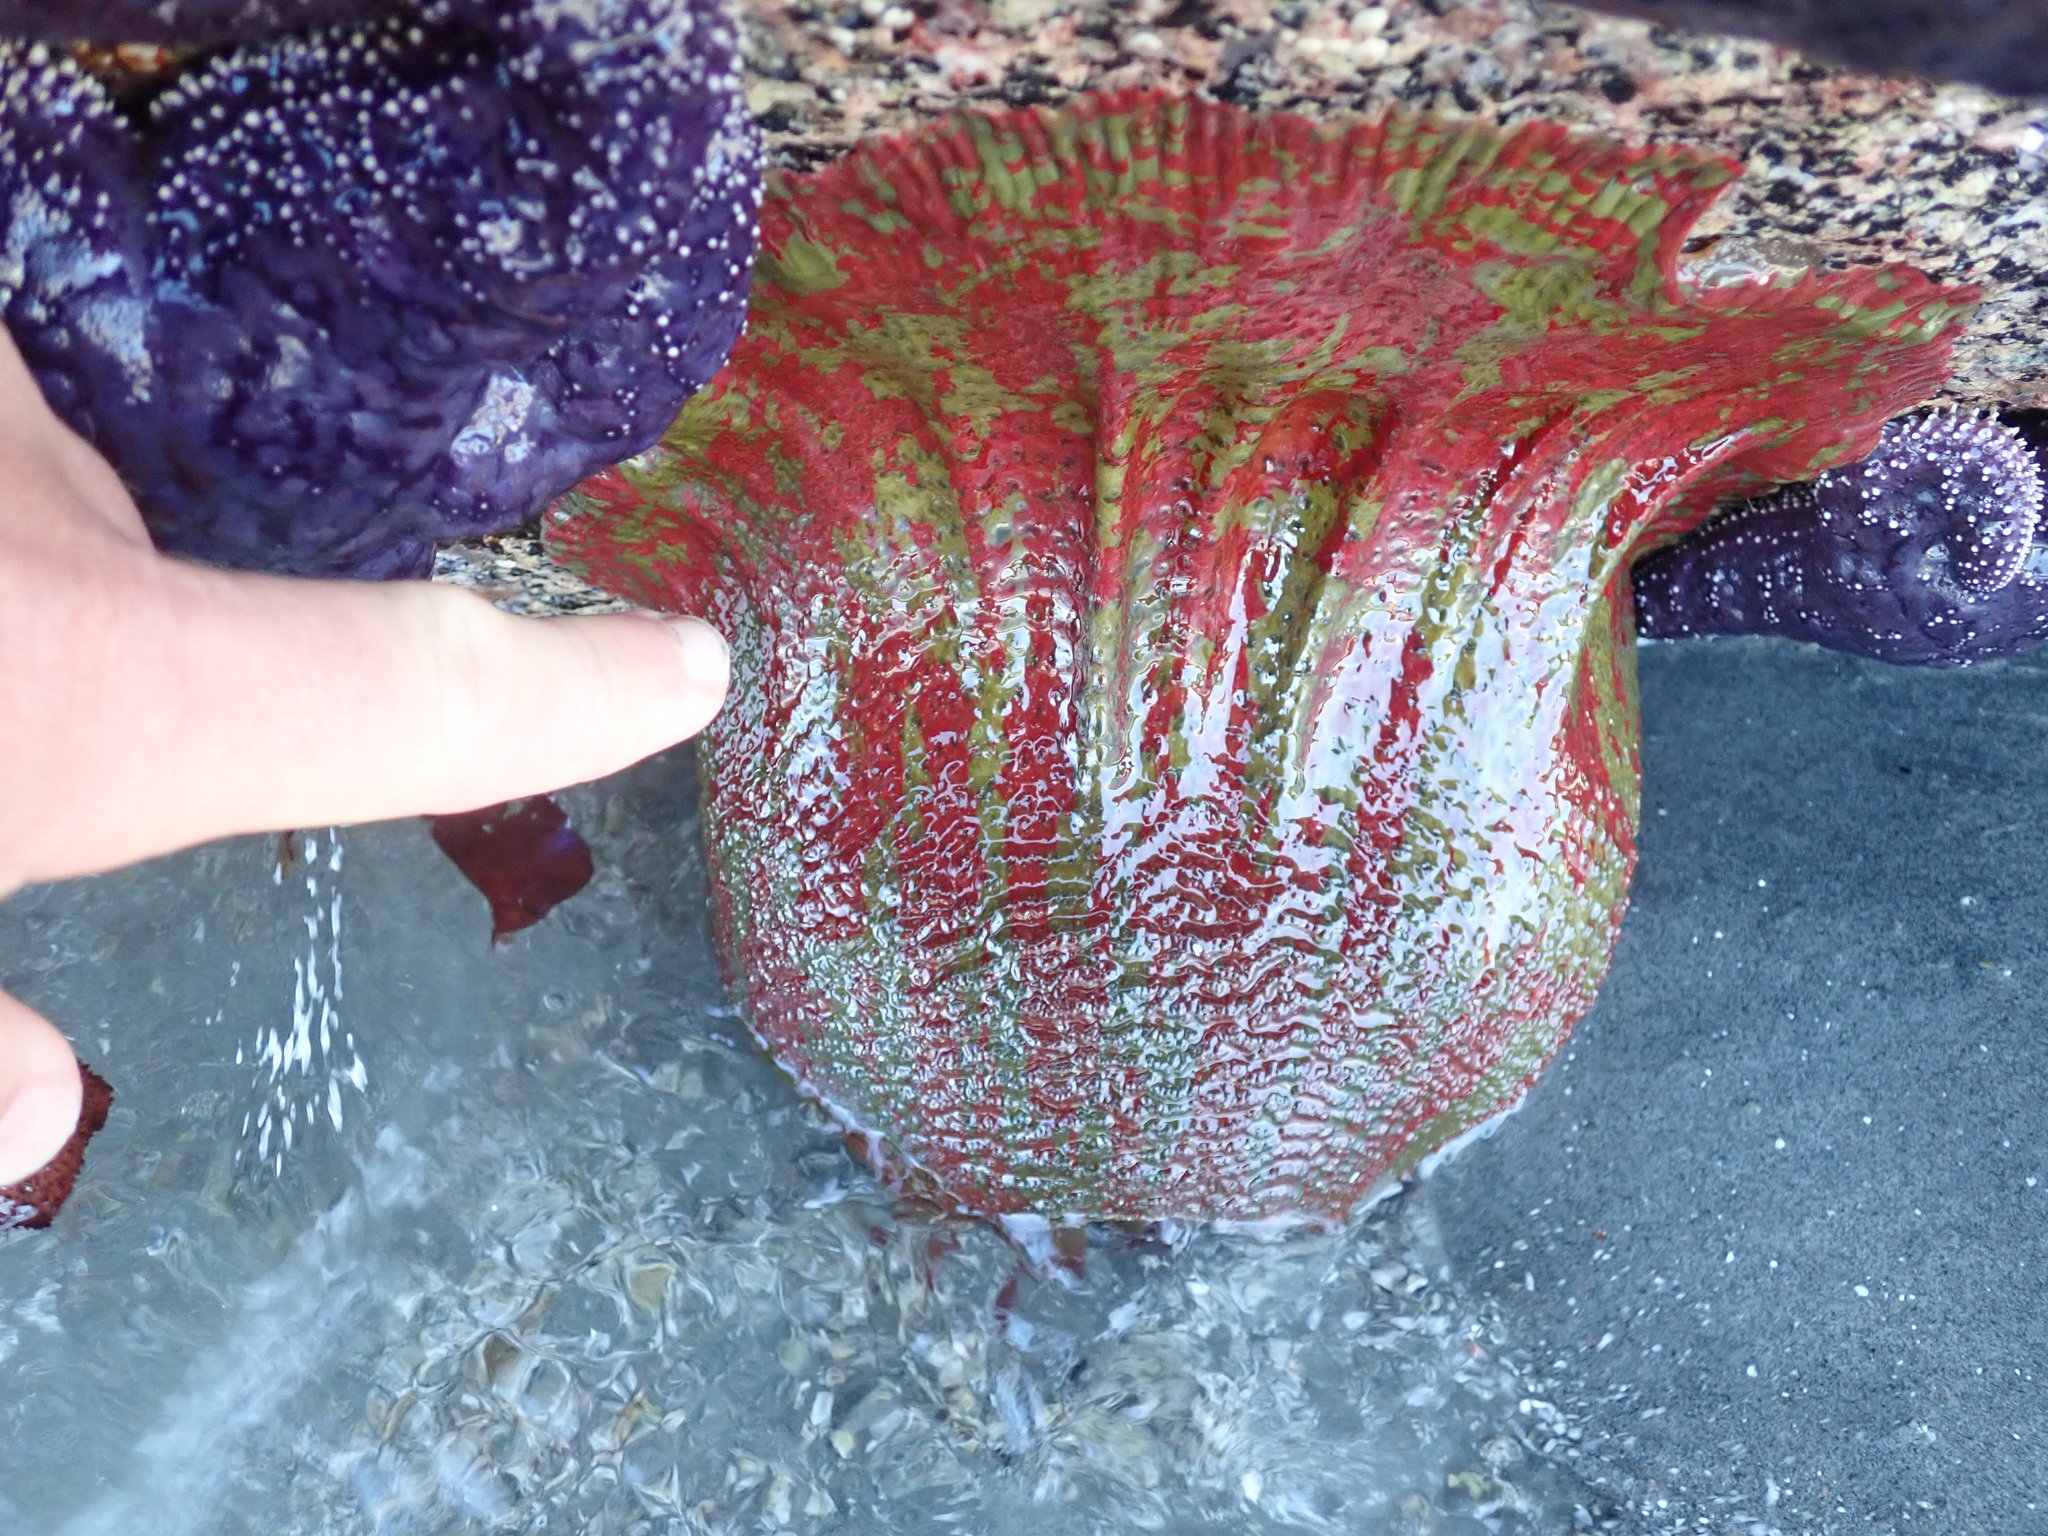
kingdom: Animalia
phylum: Cnidaria
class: Anthozoa
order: Actiniaria
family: Actiniidae
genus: Urticina
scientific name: Urticina grebelnyi
